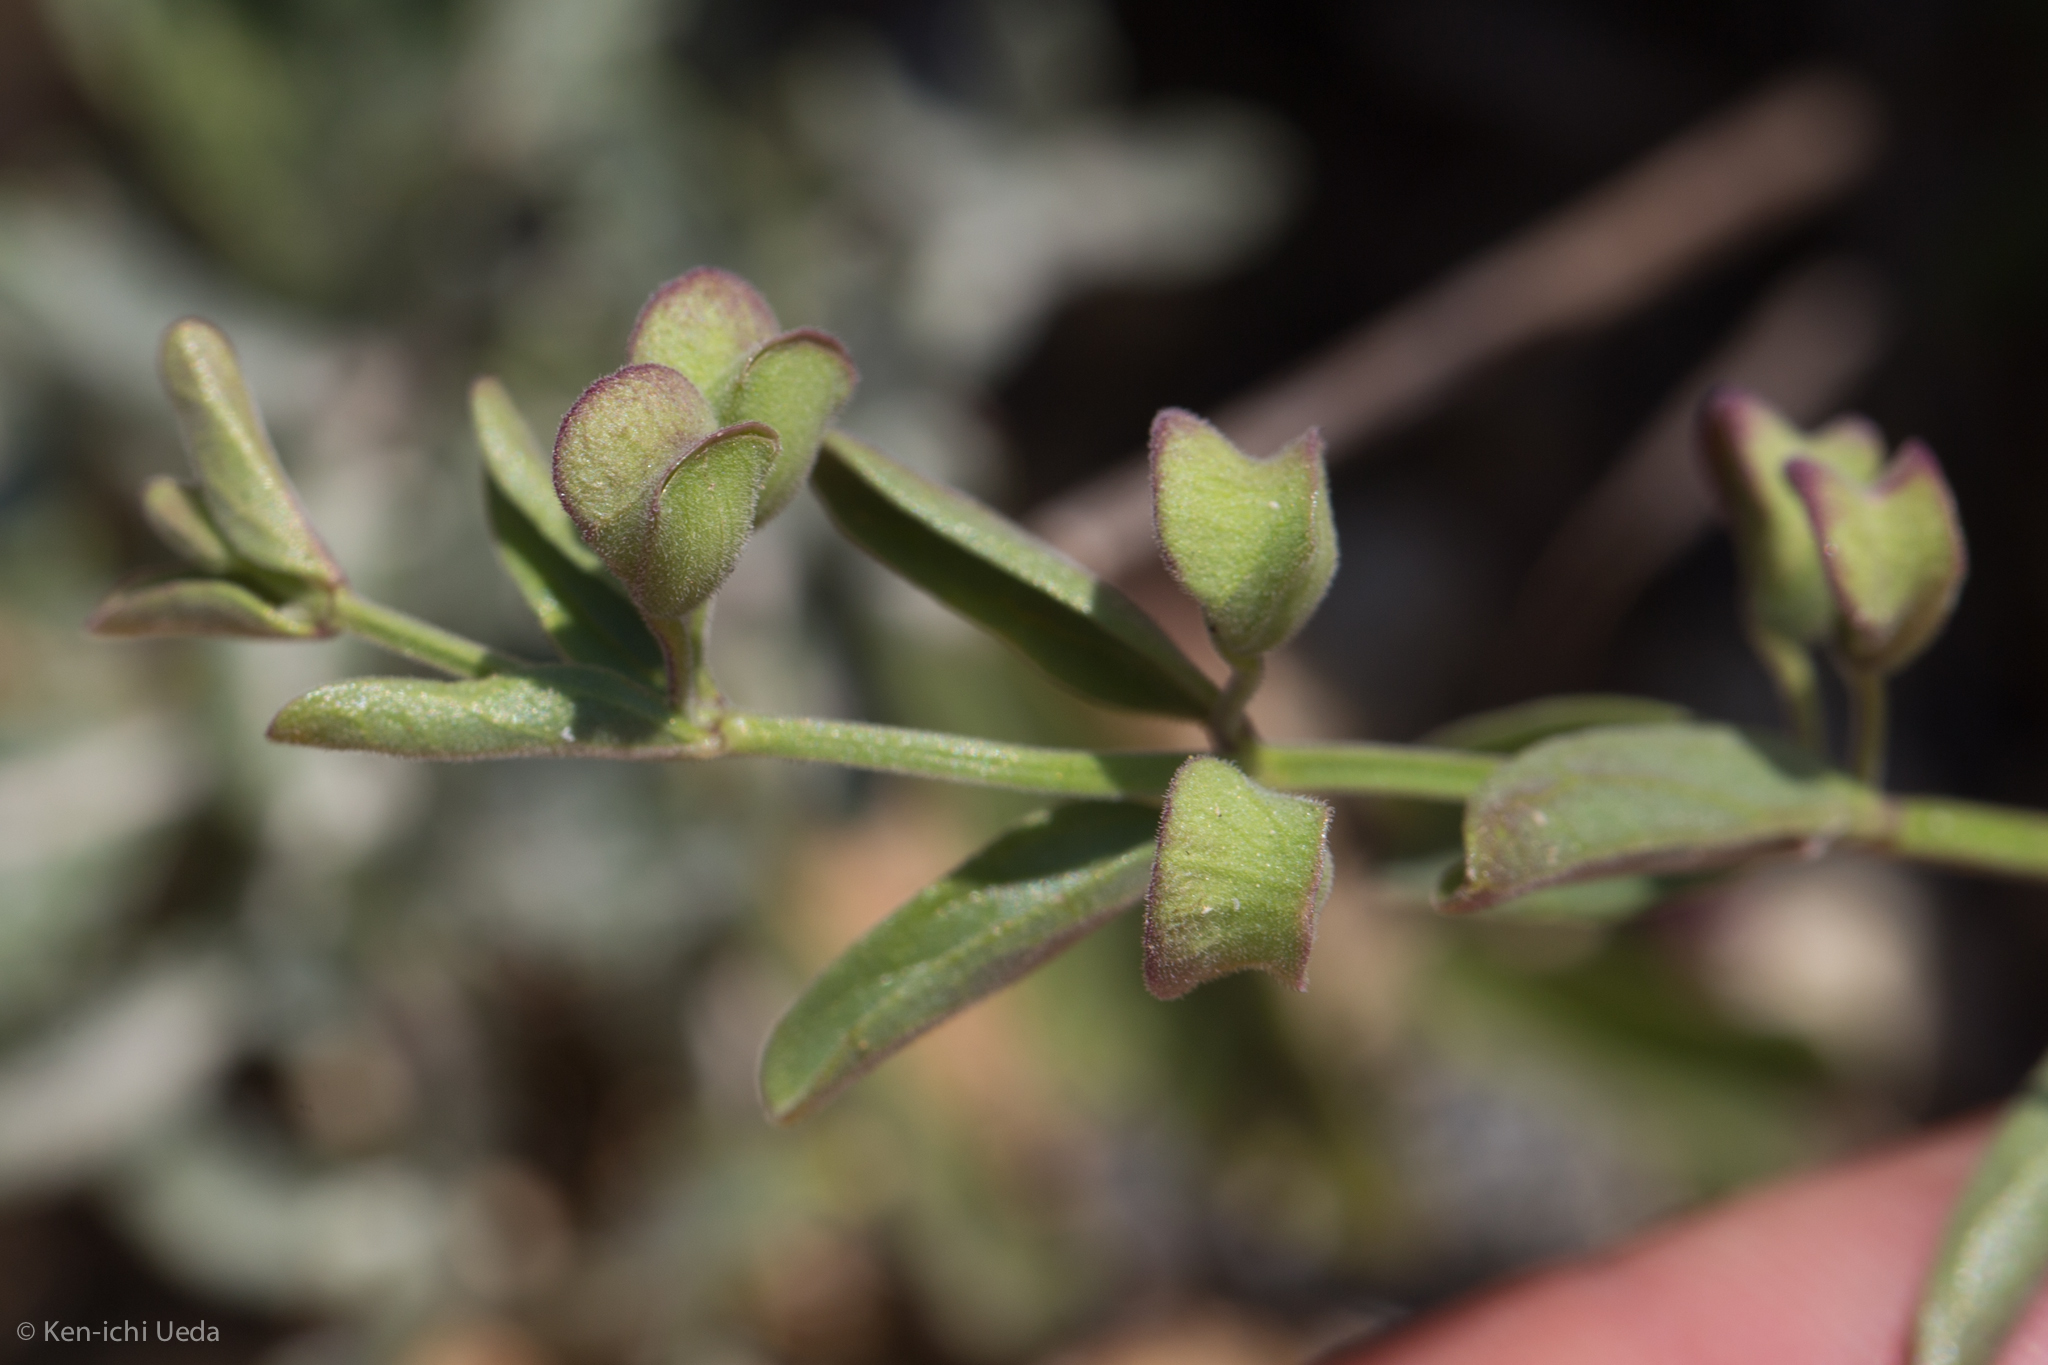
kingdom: Plantae
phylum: Tracheophyta
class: Magnoliopsida
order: Lamiales
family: Lamiaceae
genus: Scutellaria
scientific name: Scutellaria antirrhinoides
